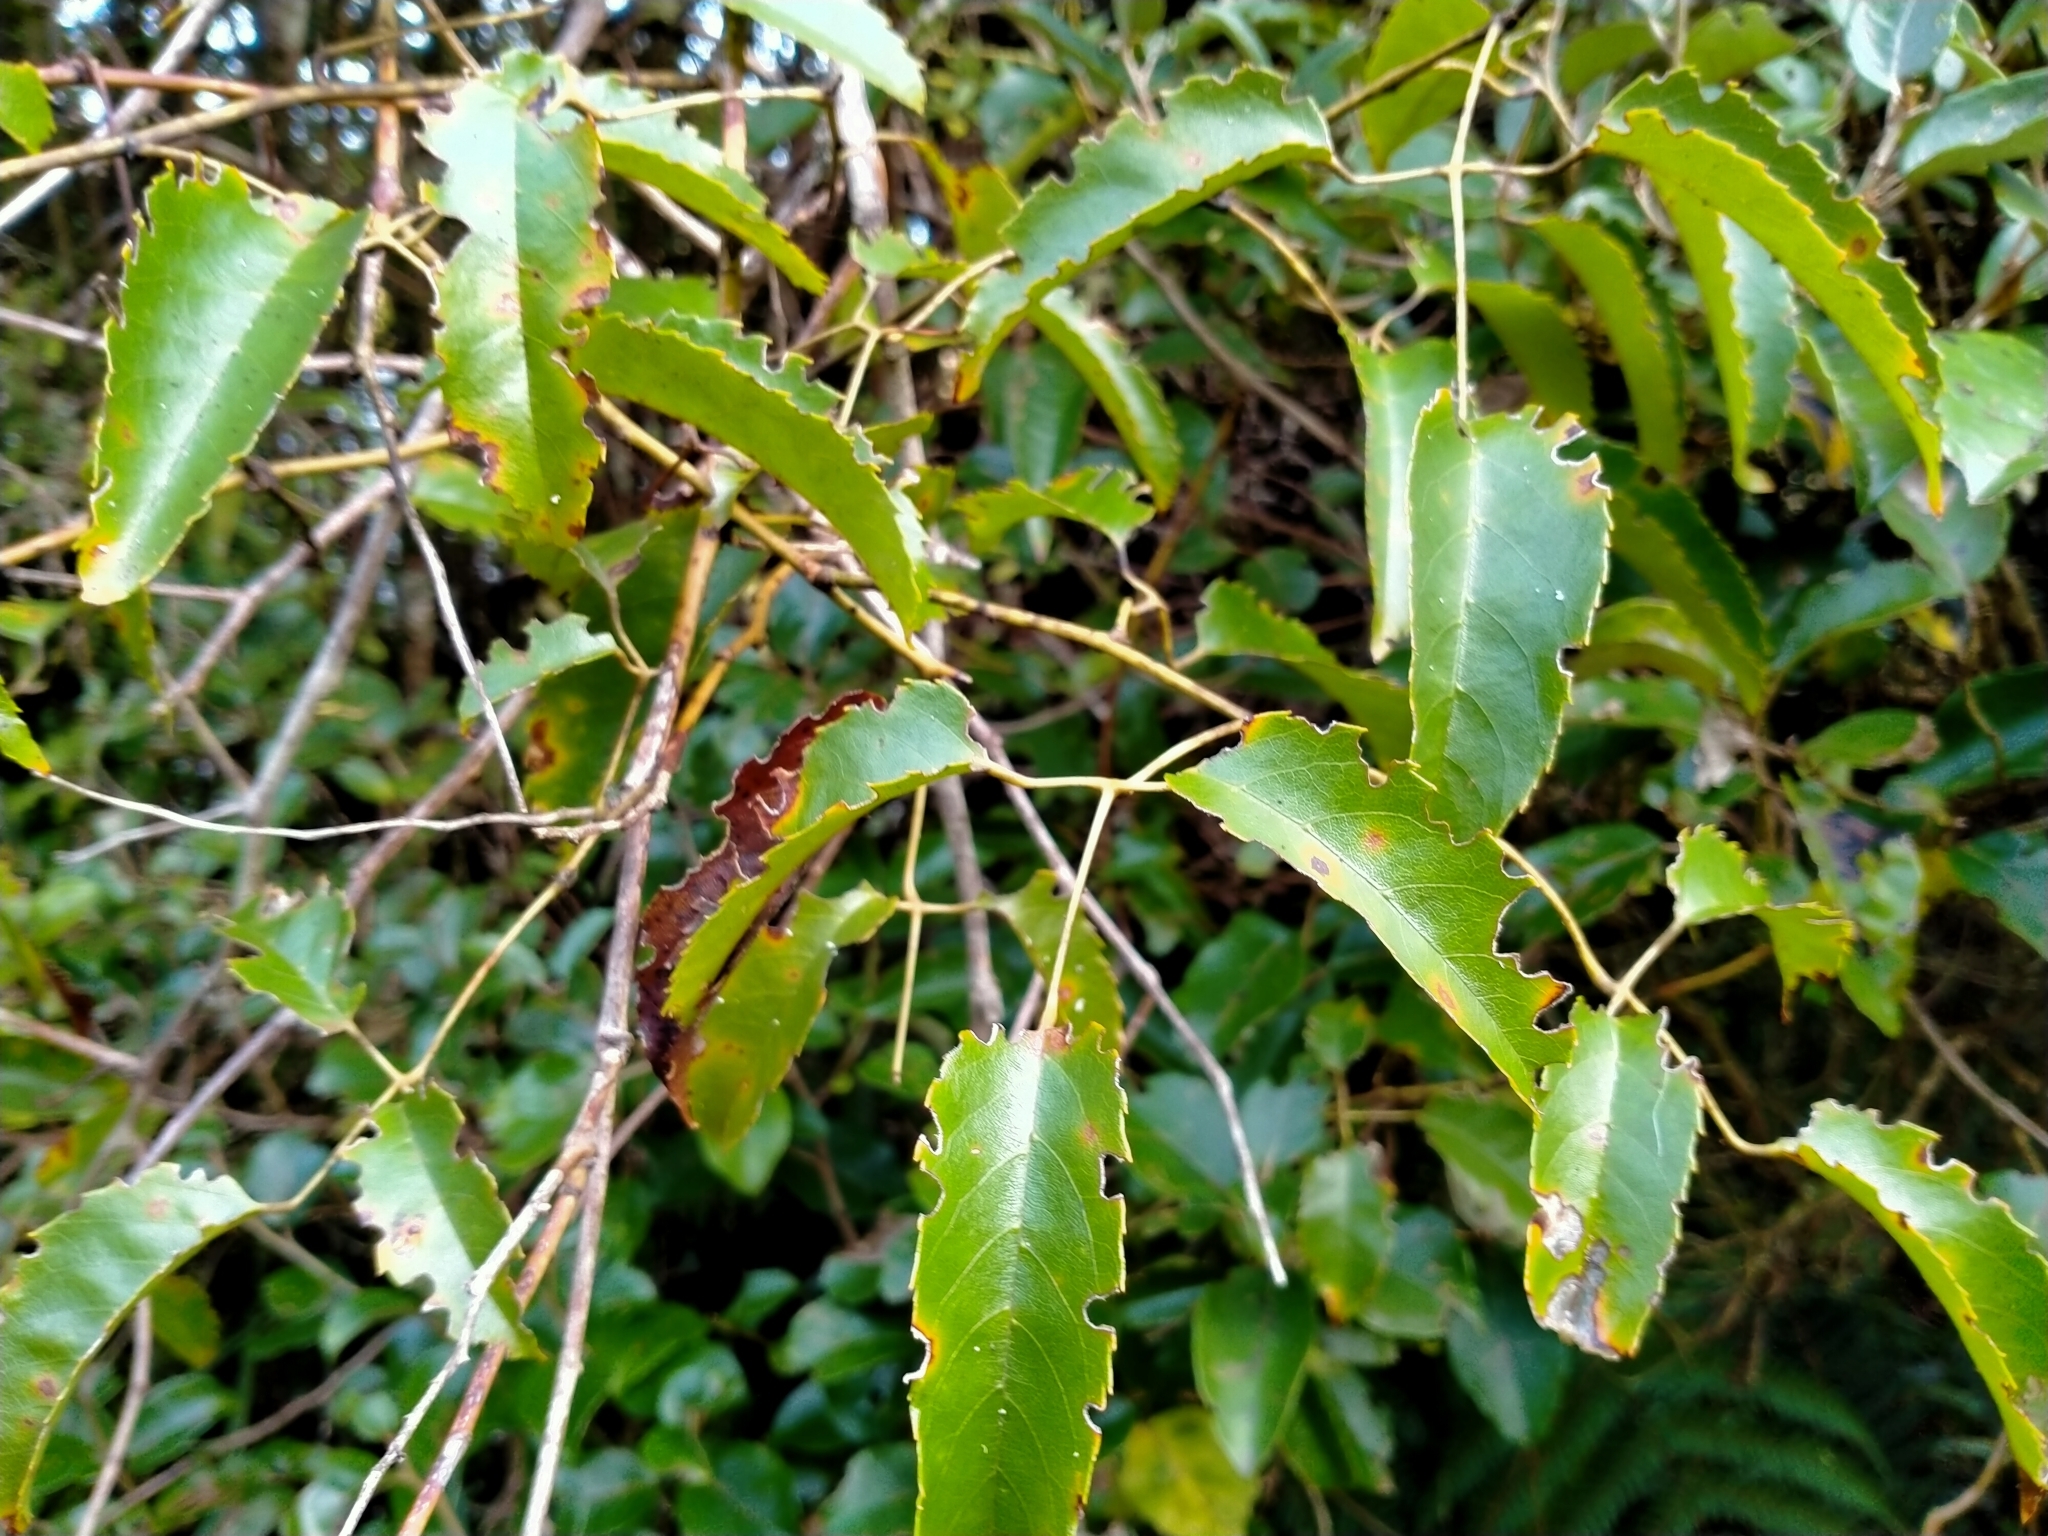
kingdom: Plantae
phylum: Tracheophyta
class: Magnoliopsida
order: Rosales
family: Rosaceae
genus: Rubus
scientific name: Rubus cissoides
